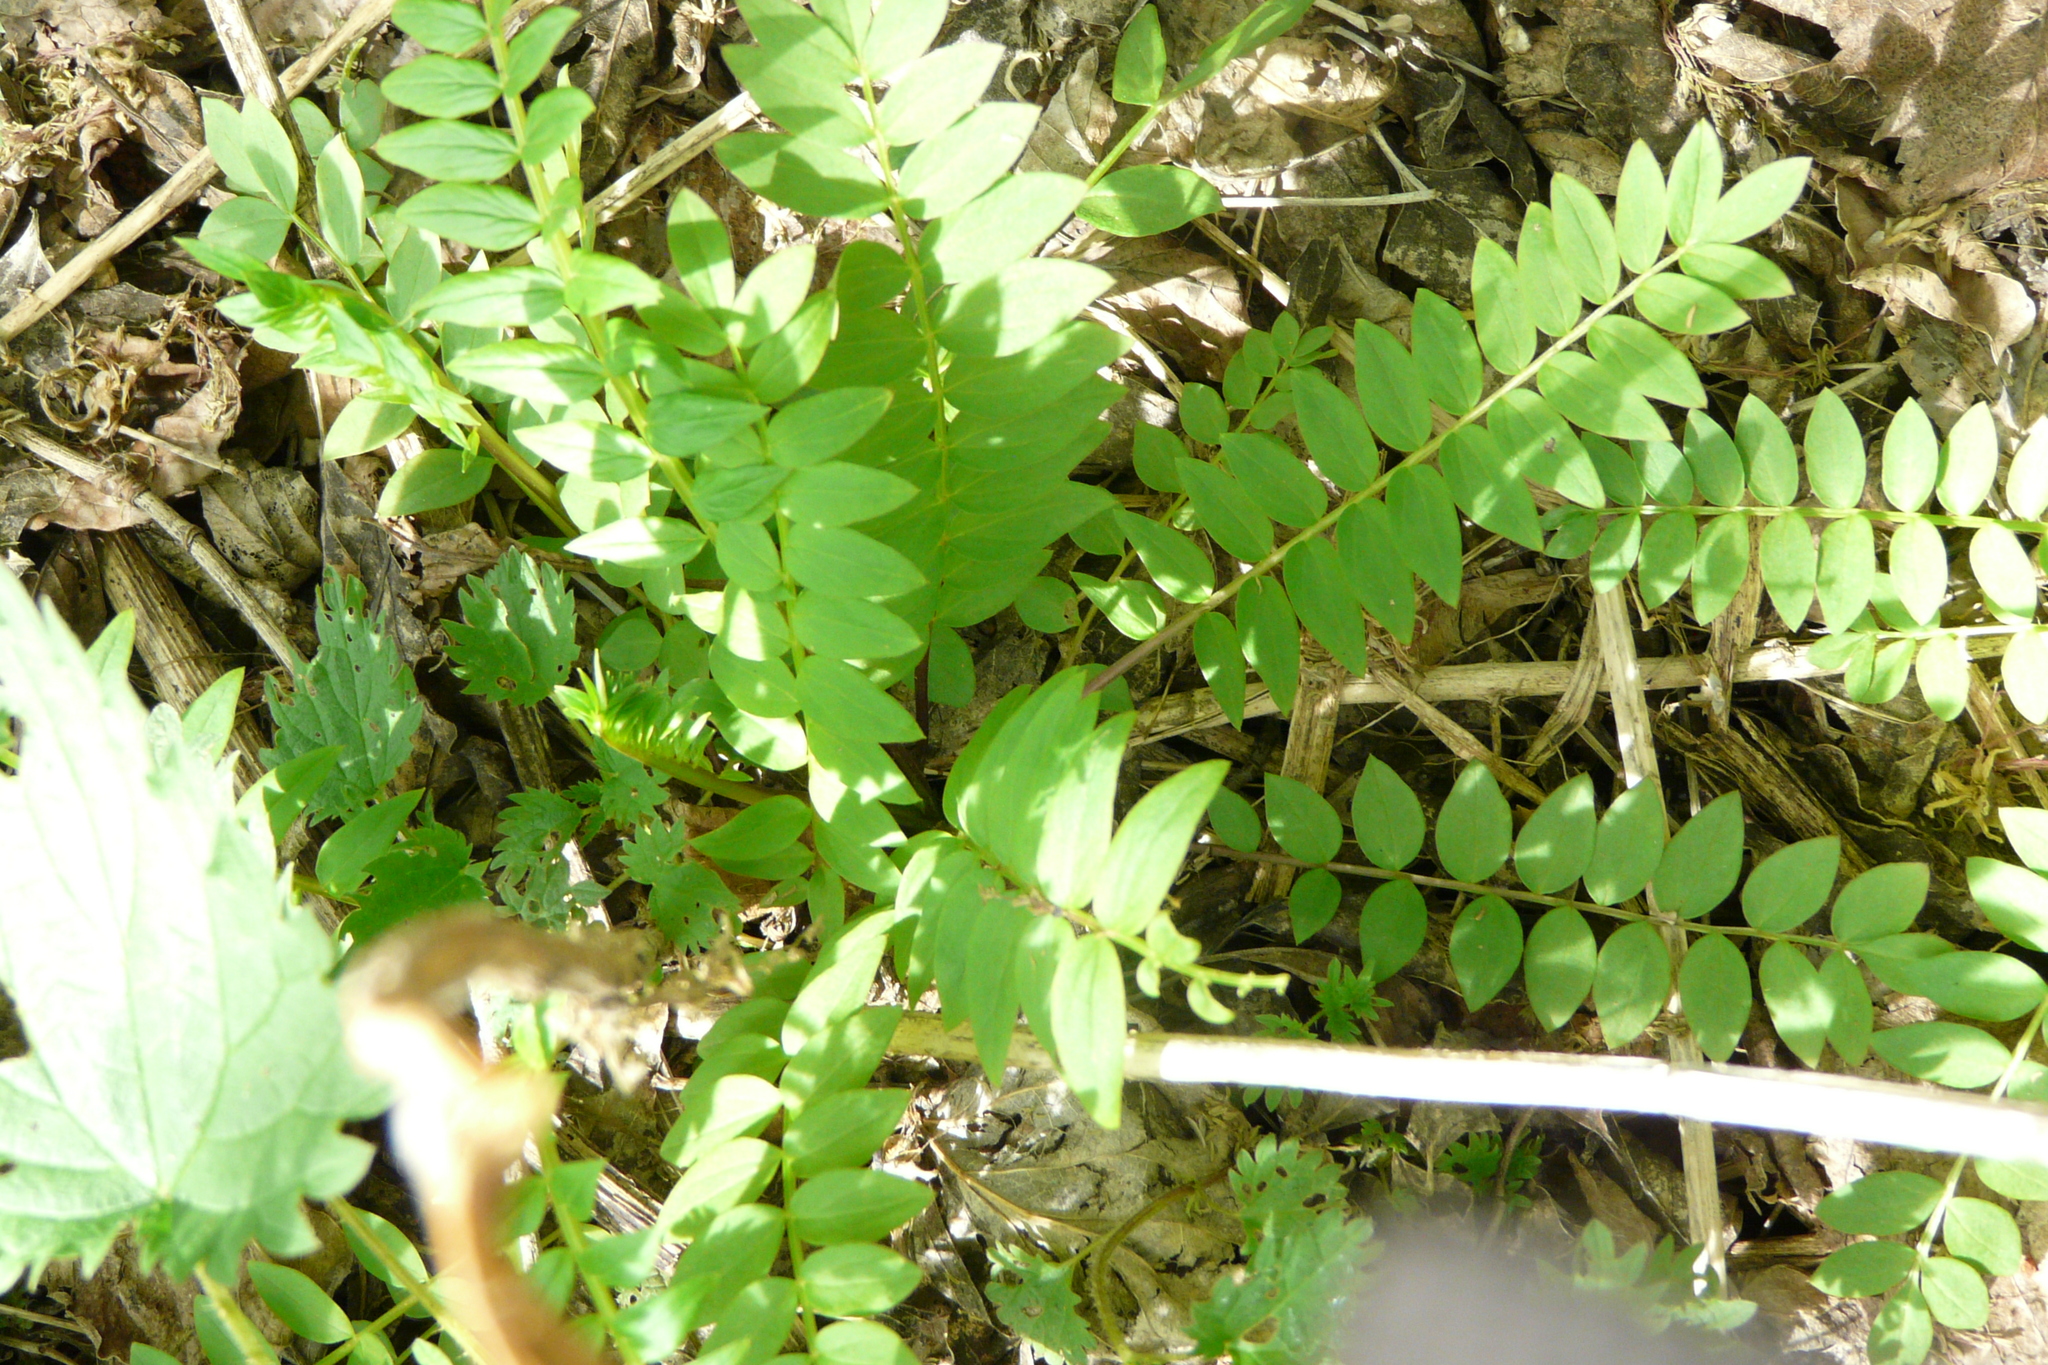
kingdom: Plantae
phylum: Tracheophyta
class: Magnoliopsida
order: Ericales
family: Polemoniaceae
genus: Polemonium
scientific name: Polemonium caeruleum
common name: Jacob's-ladder
